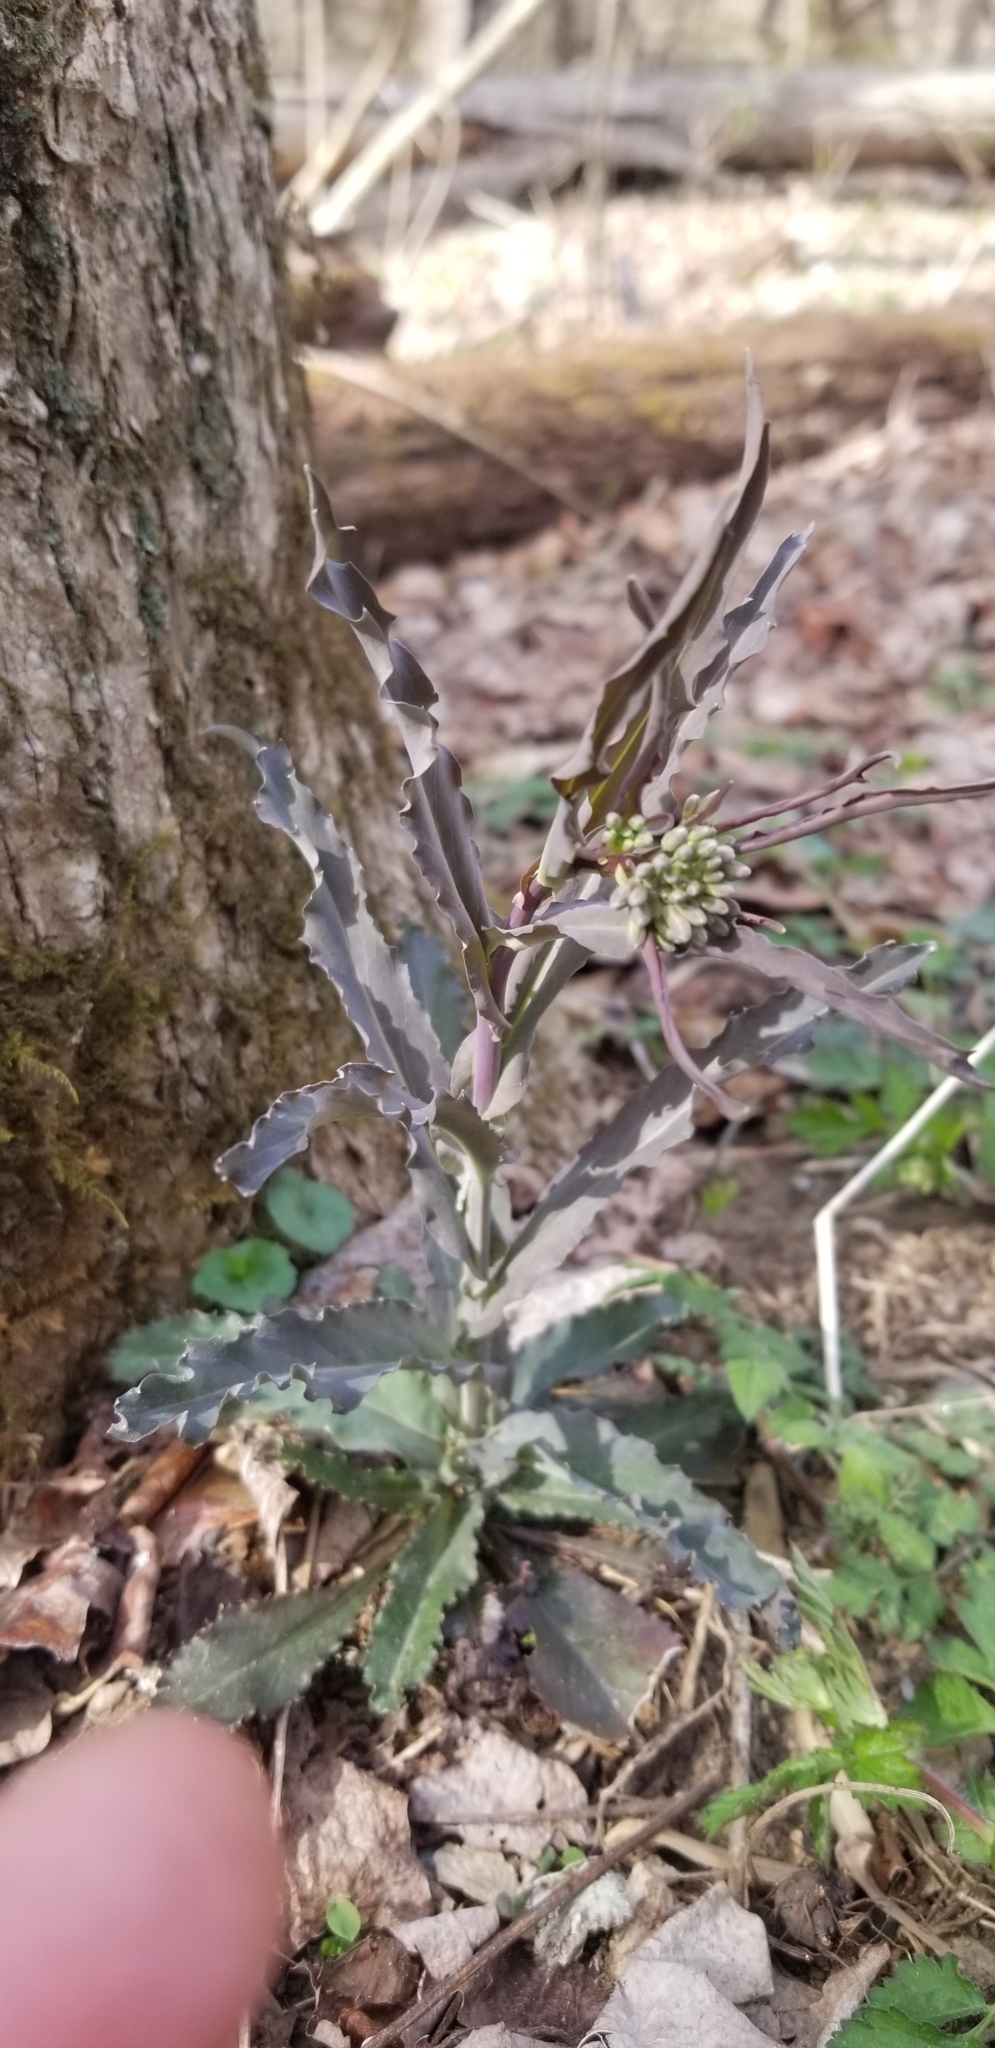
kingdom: Plantae
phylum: Tracheophyta
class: Magnoliopsida
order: Brassicales
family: Brassicaceae
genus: Borodinia
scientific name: Borodinia laevigata
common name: Smooth rockcress
